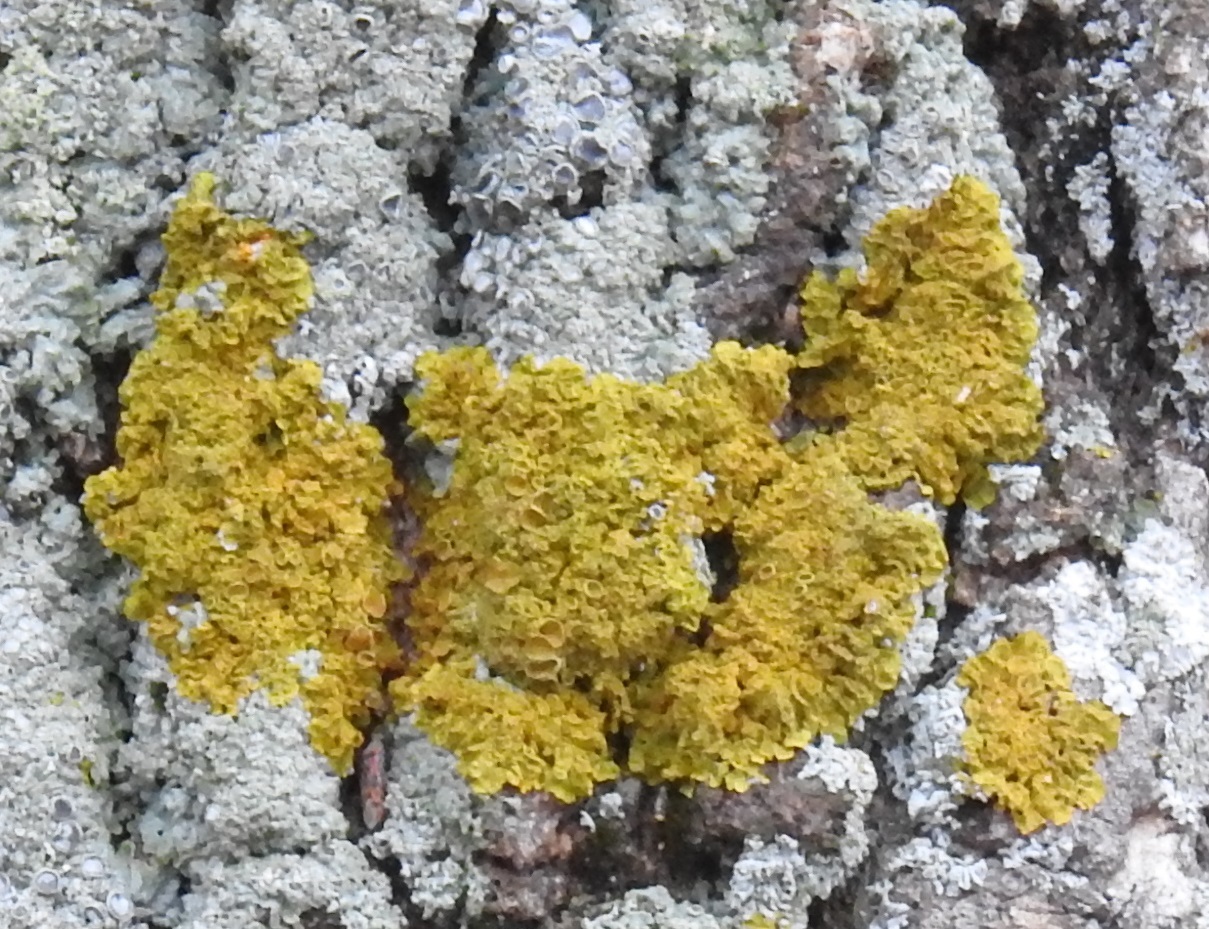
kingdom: Fungi
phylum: Ascomycota
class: Lecanoromycetes
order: Teloschistales
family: Teloschistaceae
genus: Xanthoria
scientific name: Xanthoria parietina
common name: Common orange lichen
